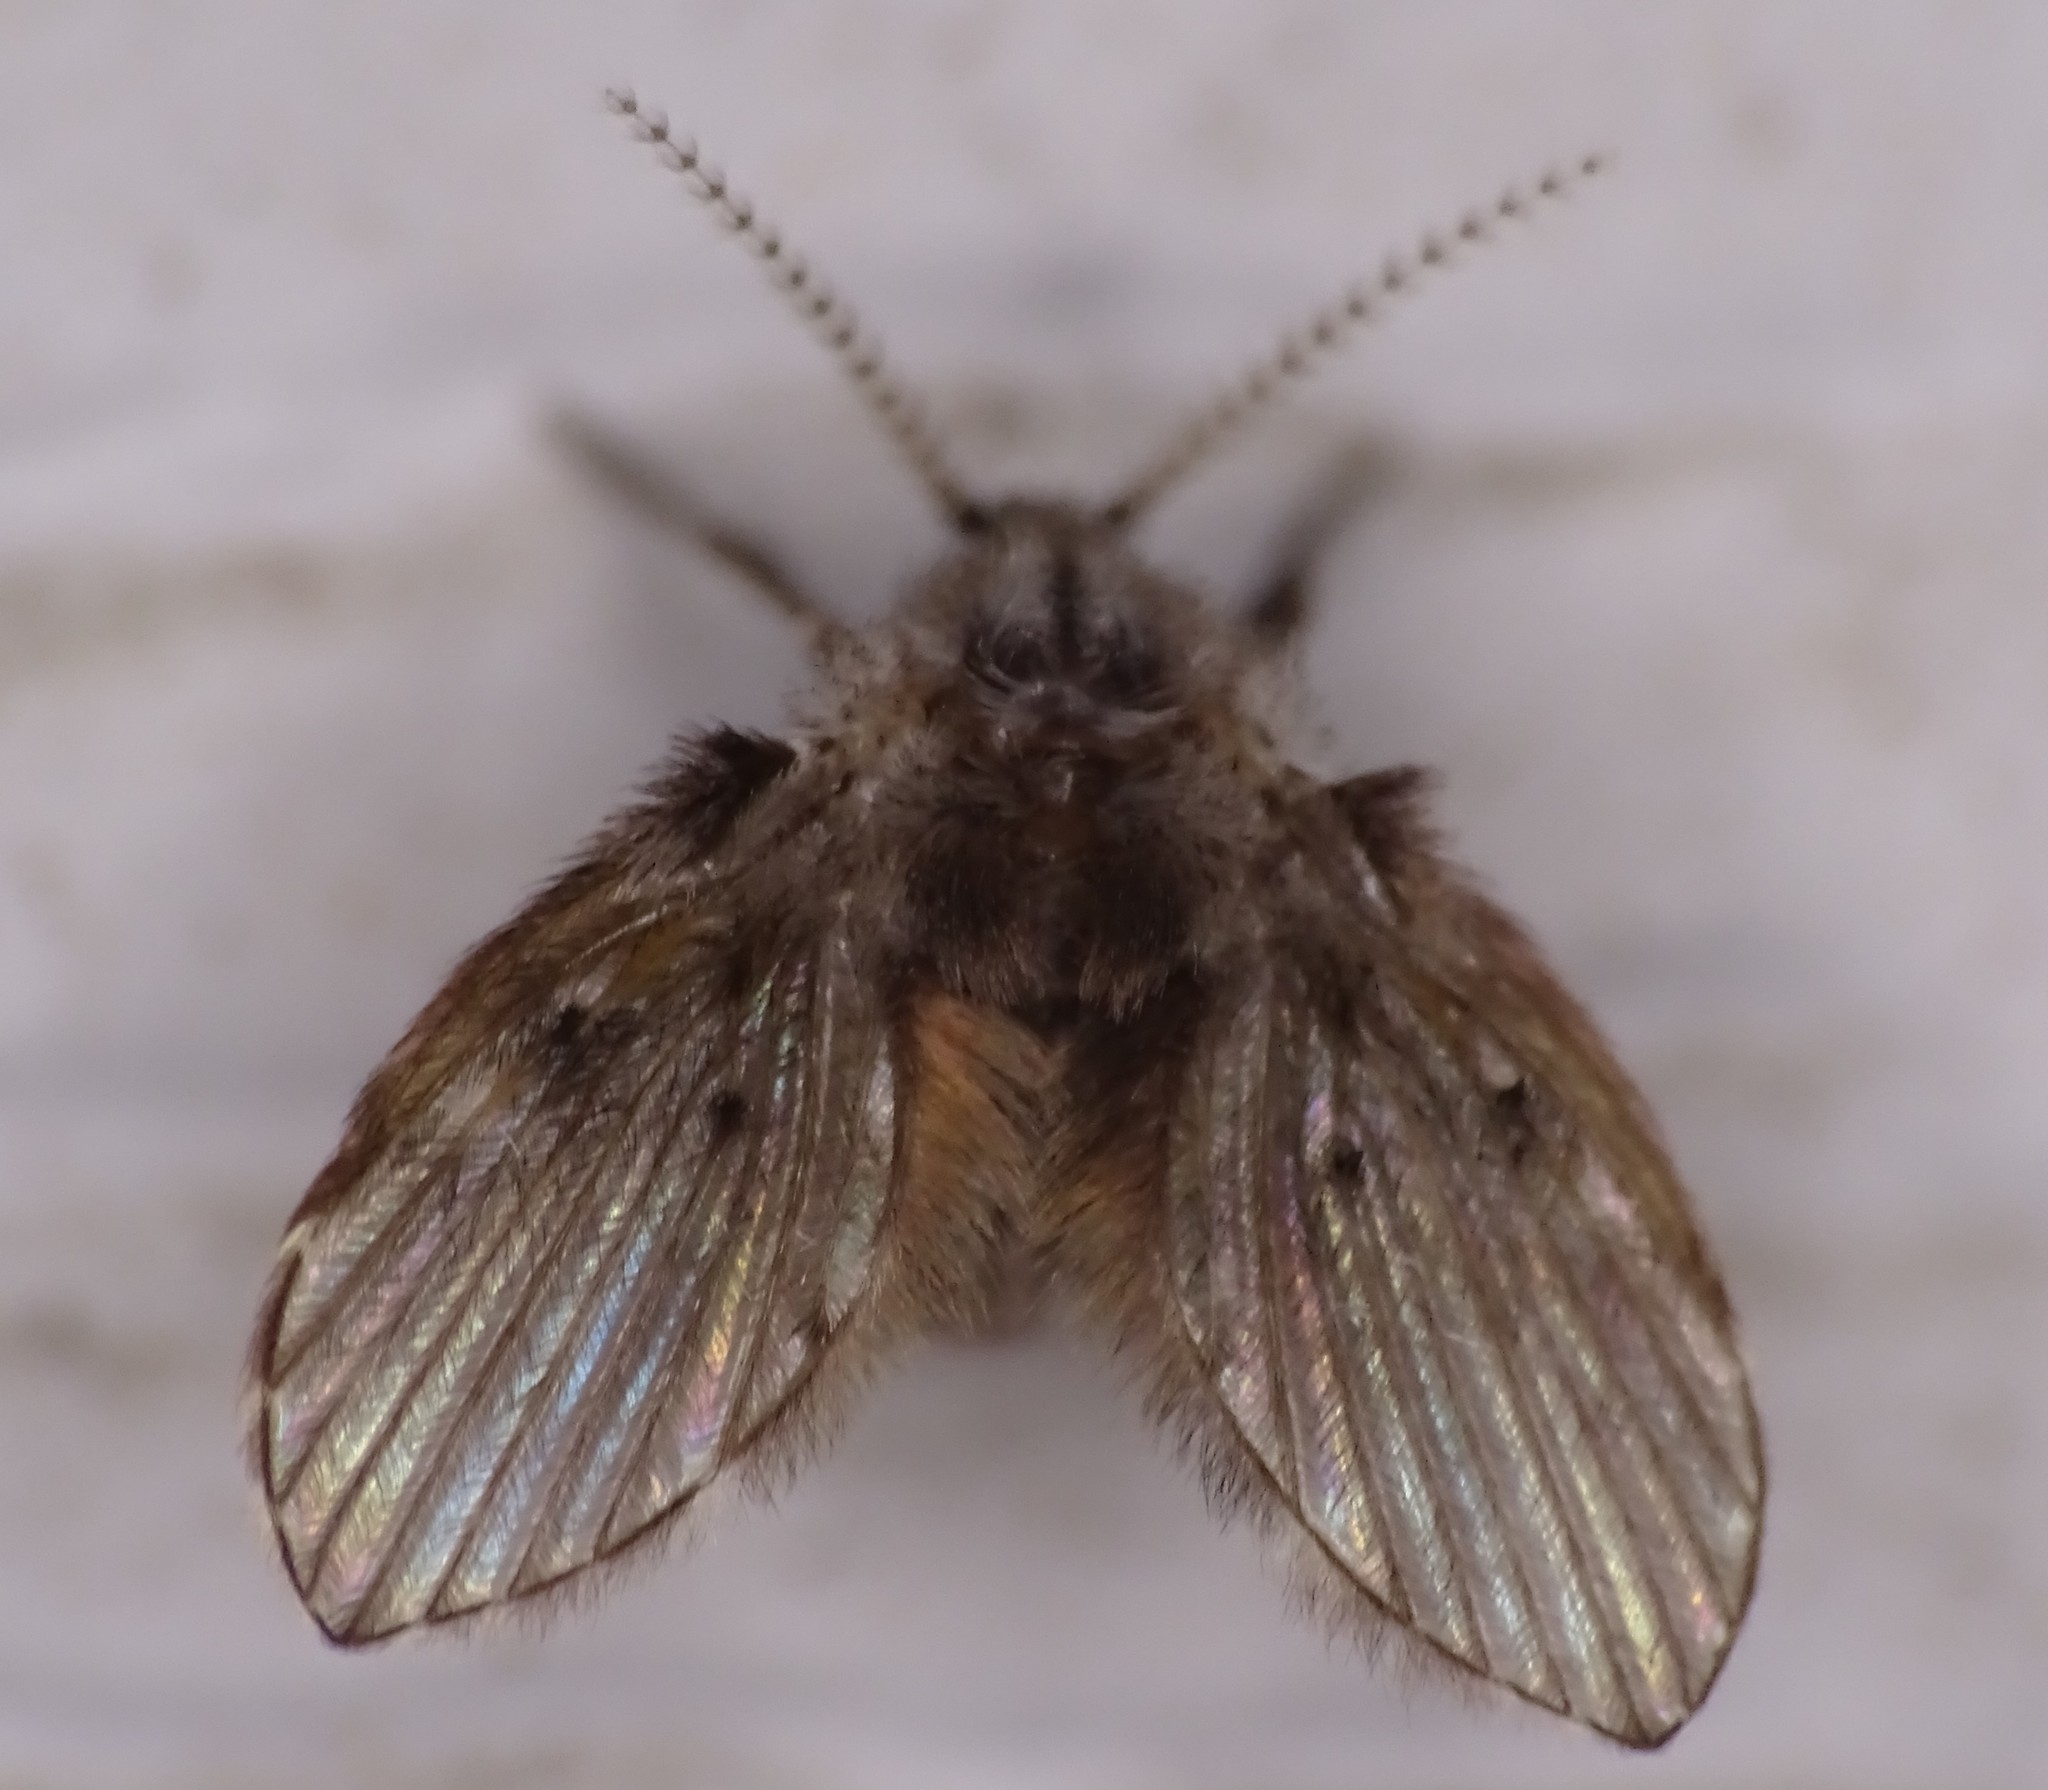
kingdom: Animalia
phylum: Arthropoda
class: Insecta
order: Diptera
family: Psychodidae
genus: Clogmia
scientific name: Clogmia albipunctatus
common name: White-spotted moth fly
